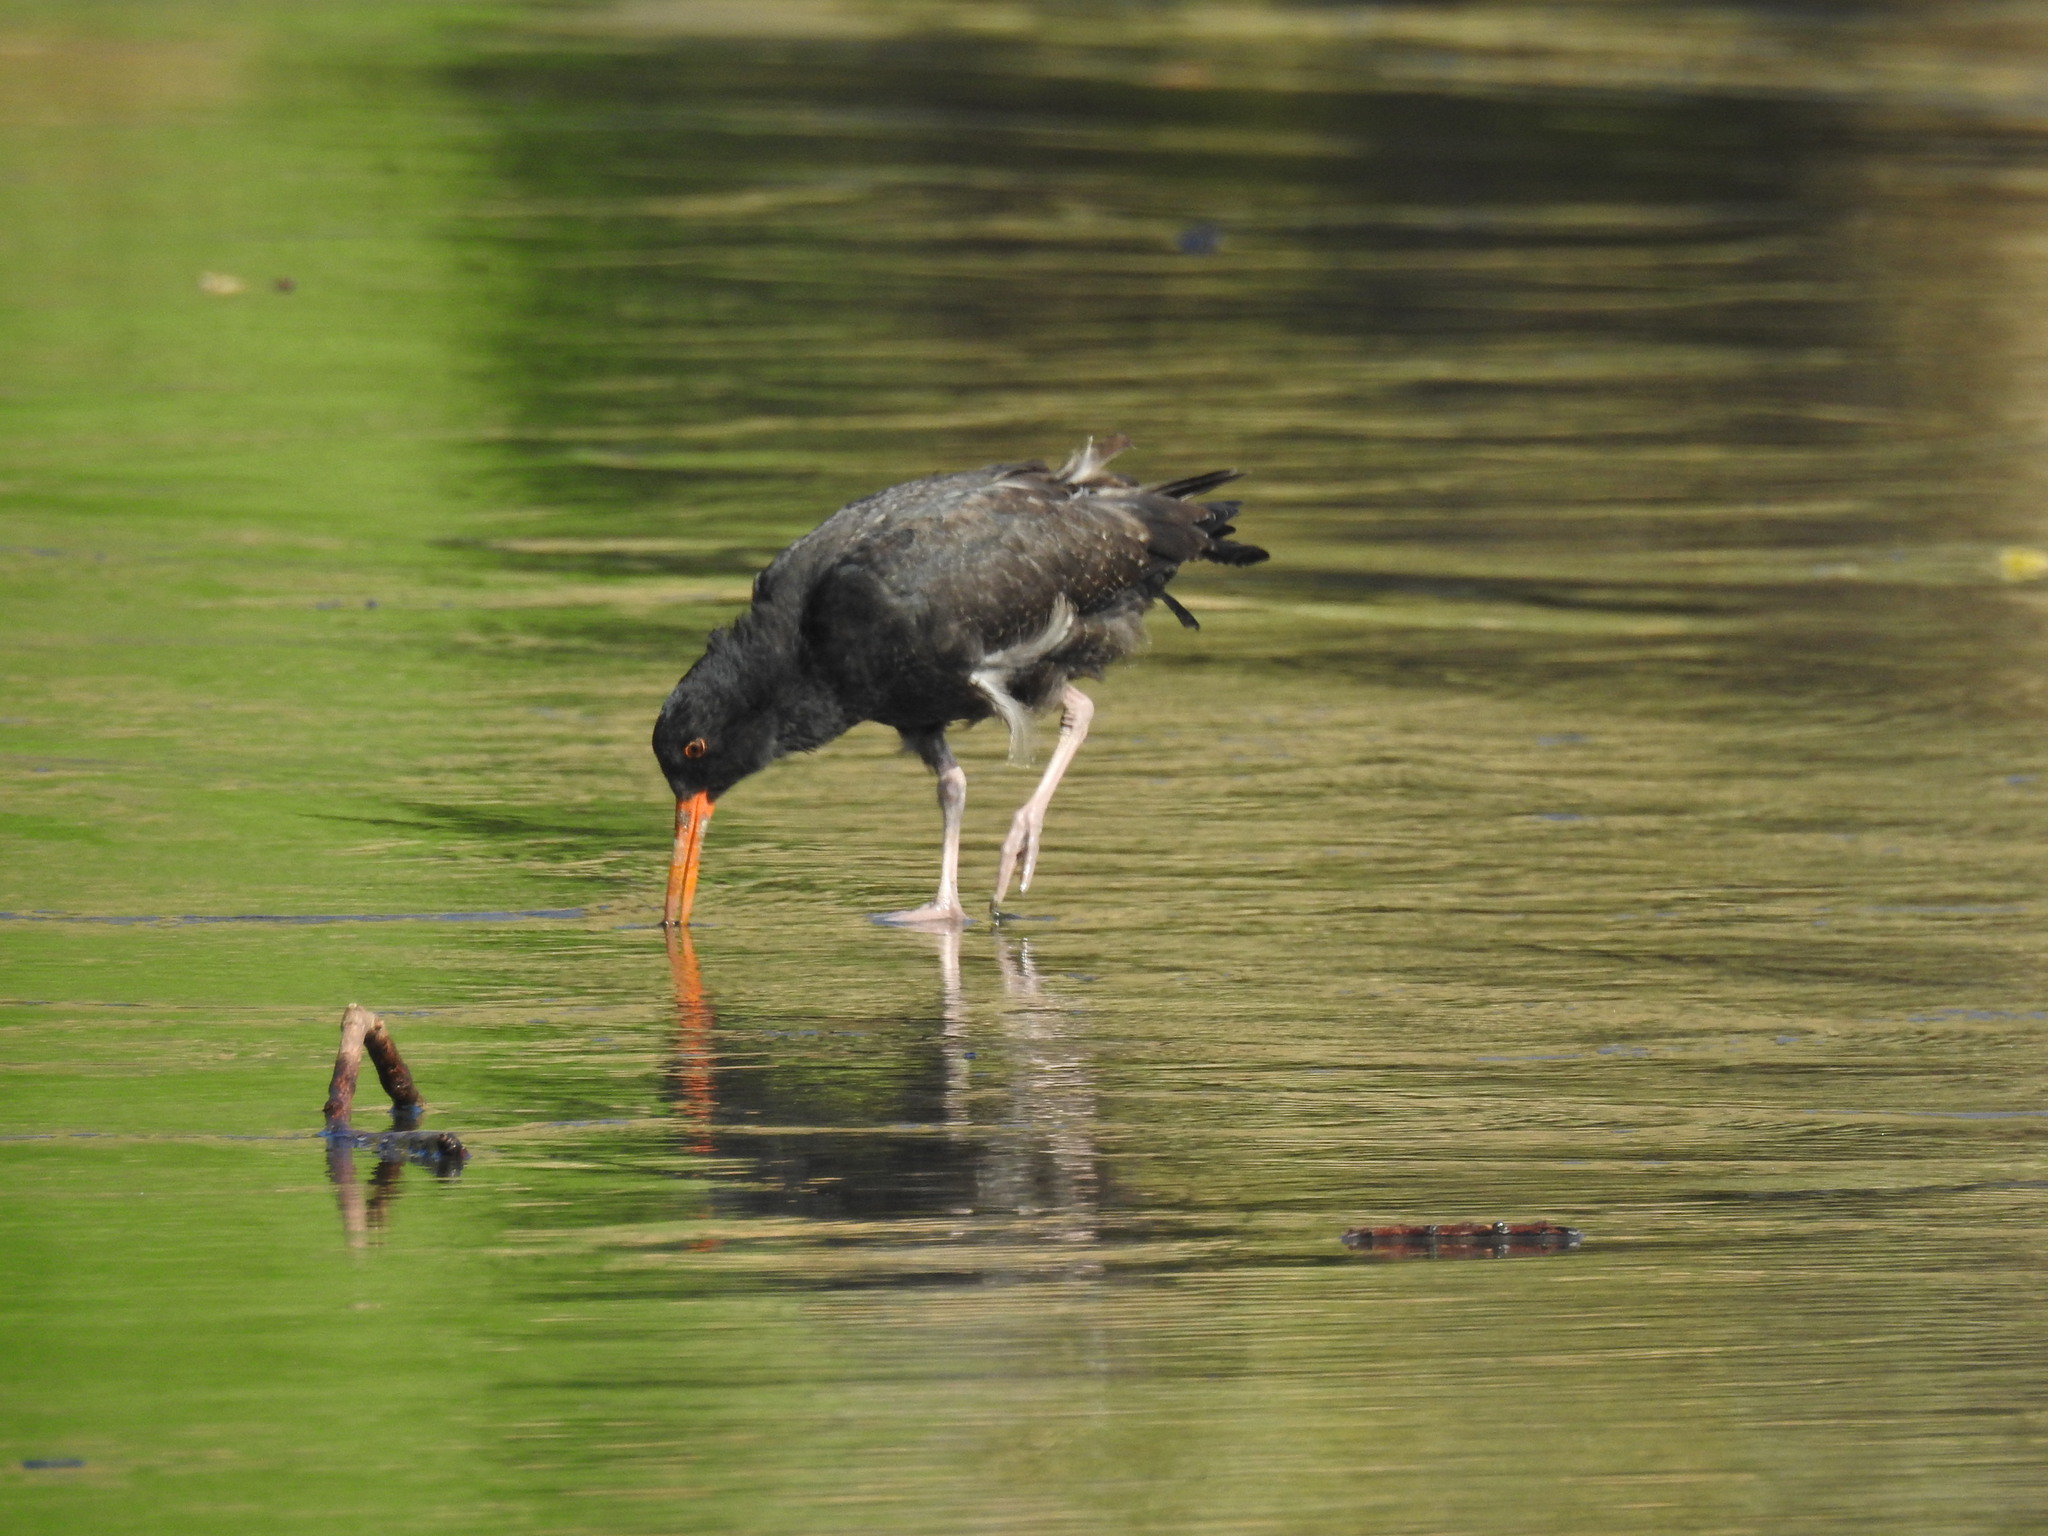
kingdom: Animalia
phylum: Chordata
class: Aves
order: Charadriiformes
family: Haematopodidae
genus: Haematopus
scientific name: Haematopus unicolor
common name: Variable oystercatcher
